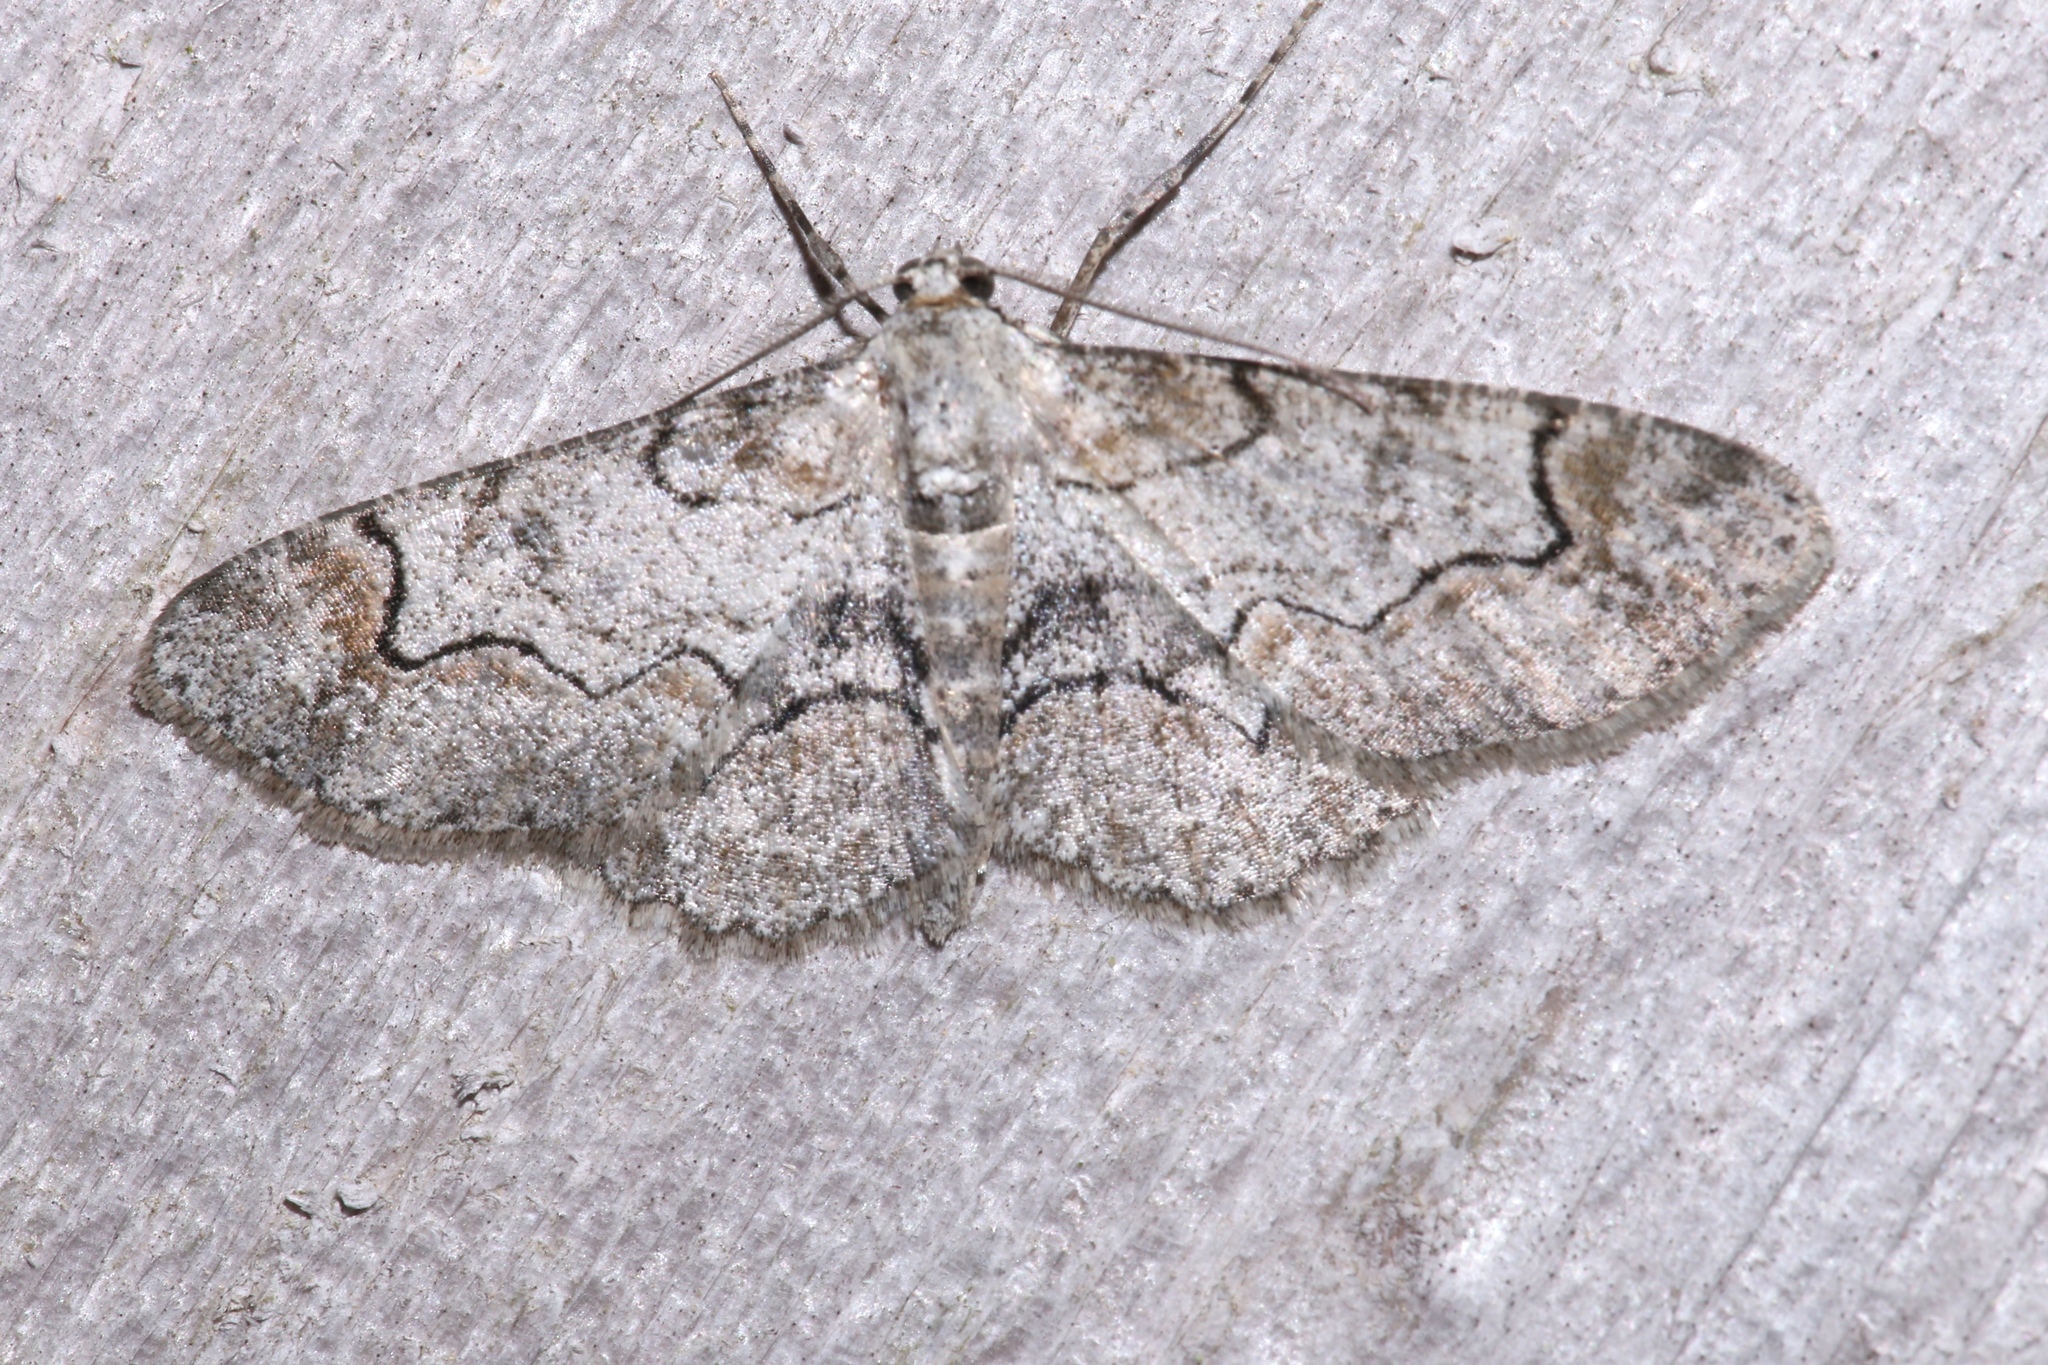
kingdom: Animalia
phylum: Arthropoda
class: Insecta
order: Lepidoptera
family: Geometridae
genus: Iridopsis
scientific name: Iridopsis larvaria
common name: Bent-line gray
